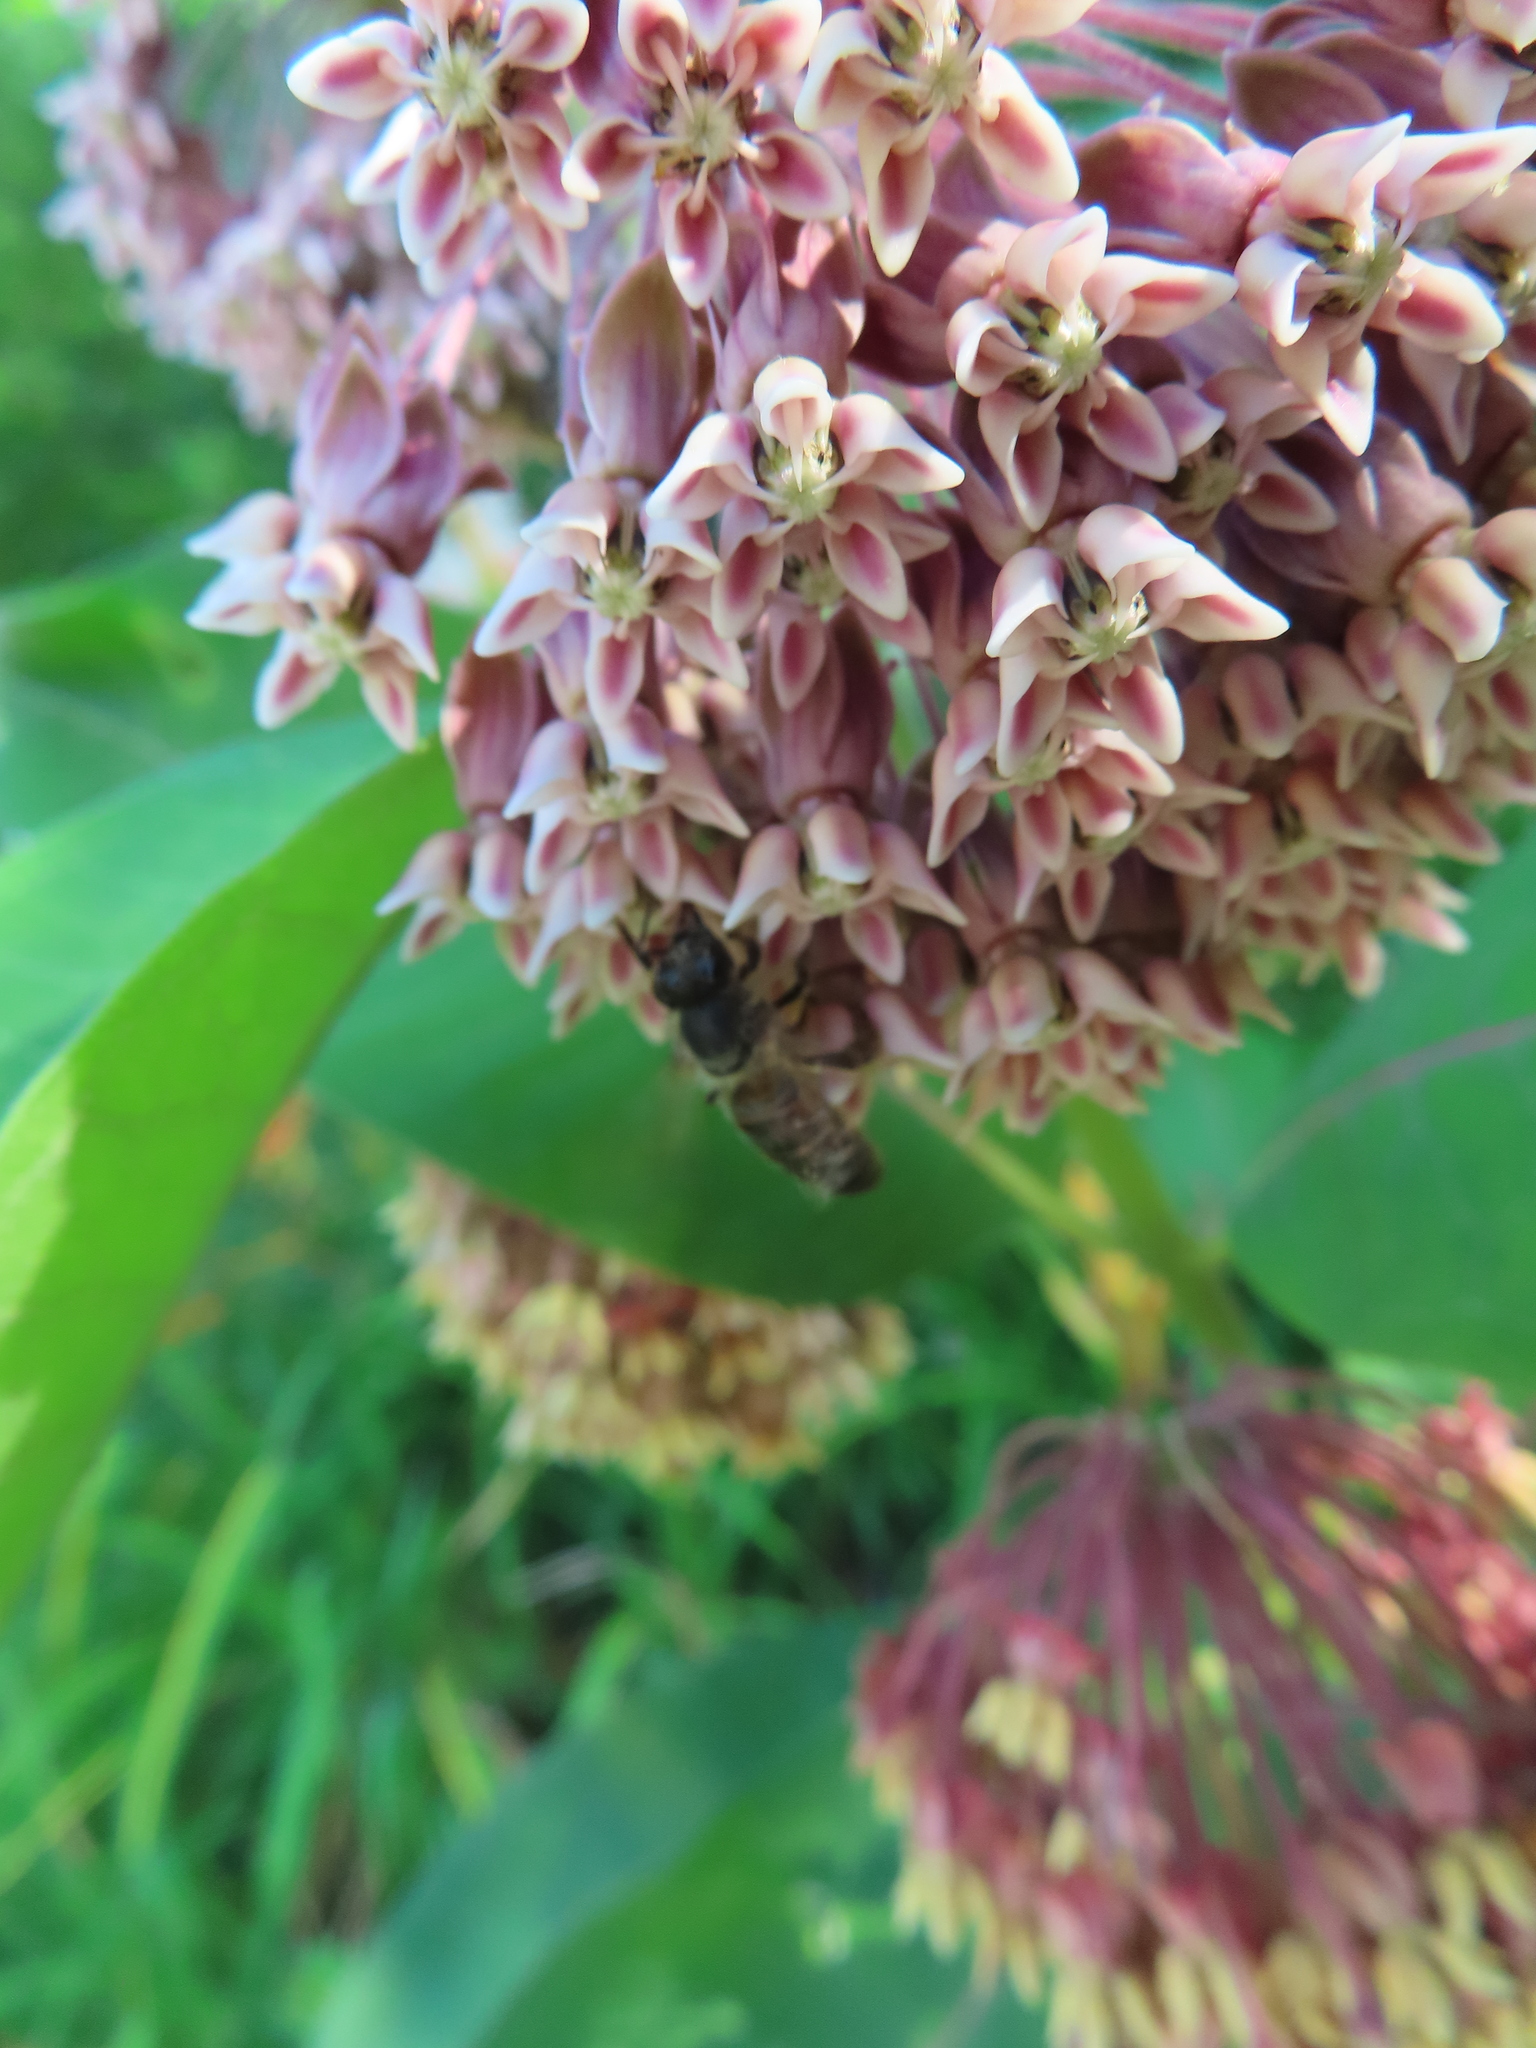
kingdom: Animalia
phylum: Arthropoda
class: Insecta
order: Hymenoptera
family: Apidae
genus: Apis
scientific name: Apis mellifera
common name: Honey bee
